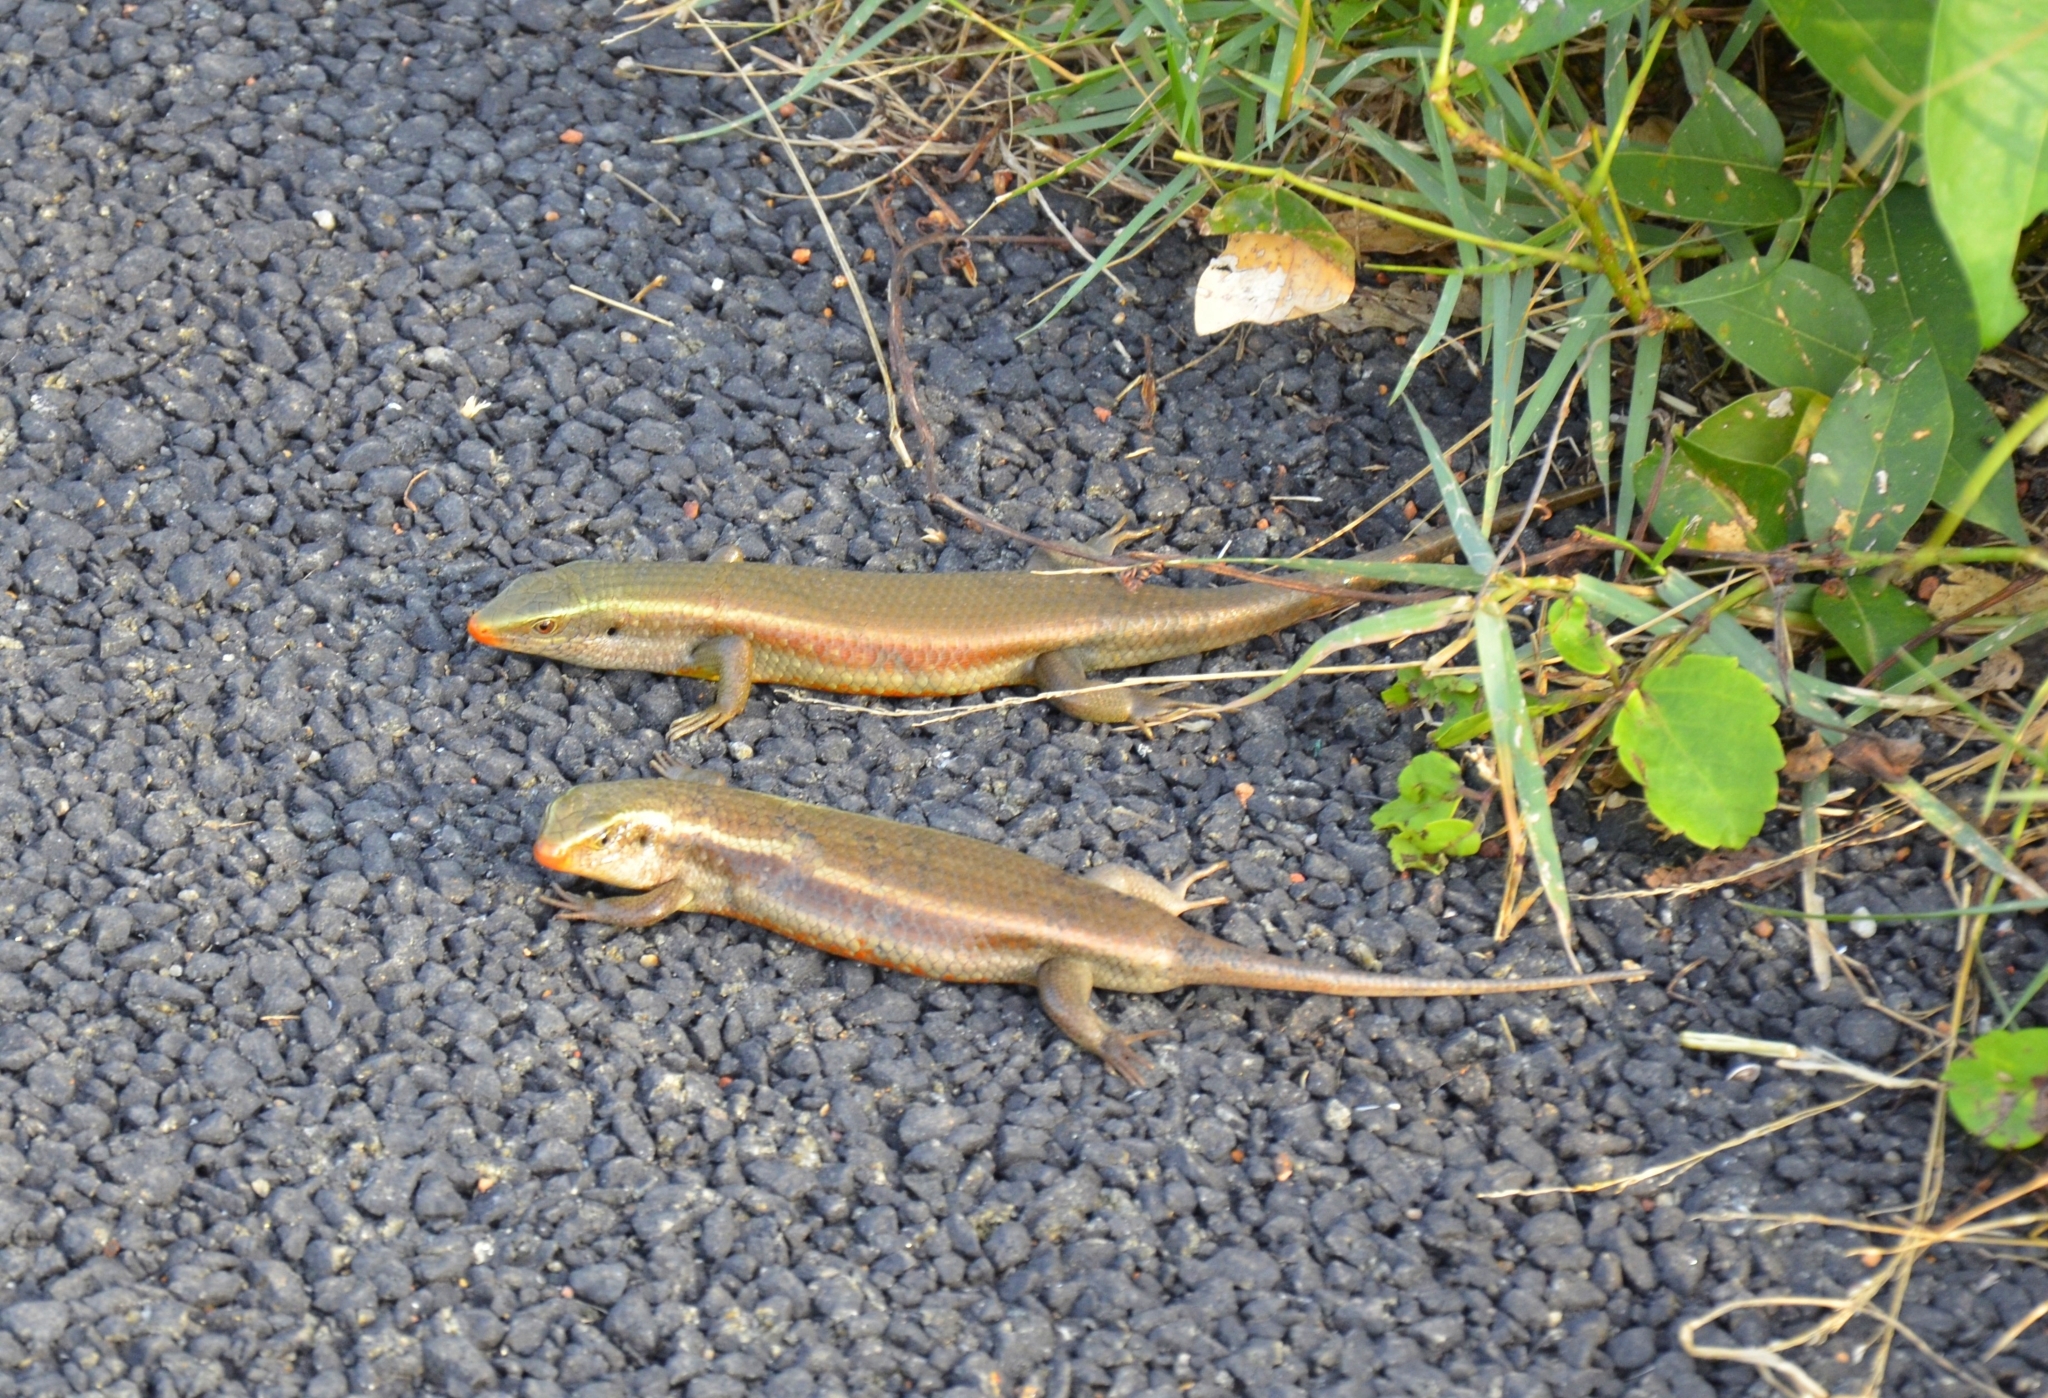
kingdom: Animalia
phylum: Chordata
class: Squamata
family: Scincidae
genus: Eutropis
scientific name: Eutropis carinata
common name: Keeled indian mabuya
